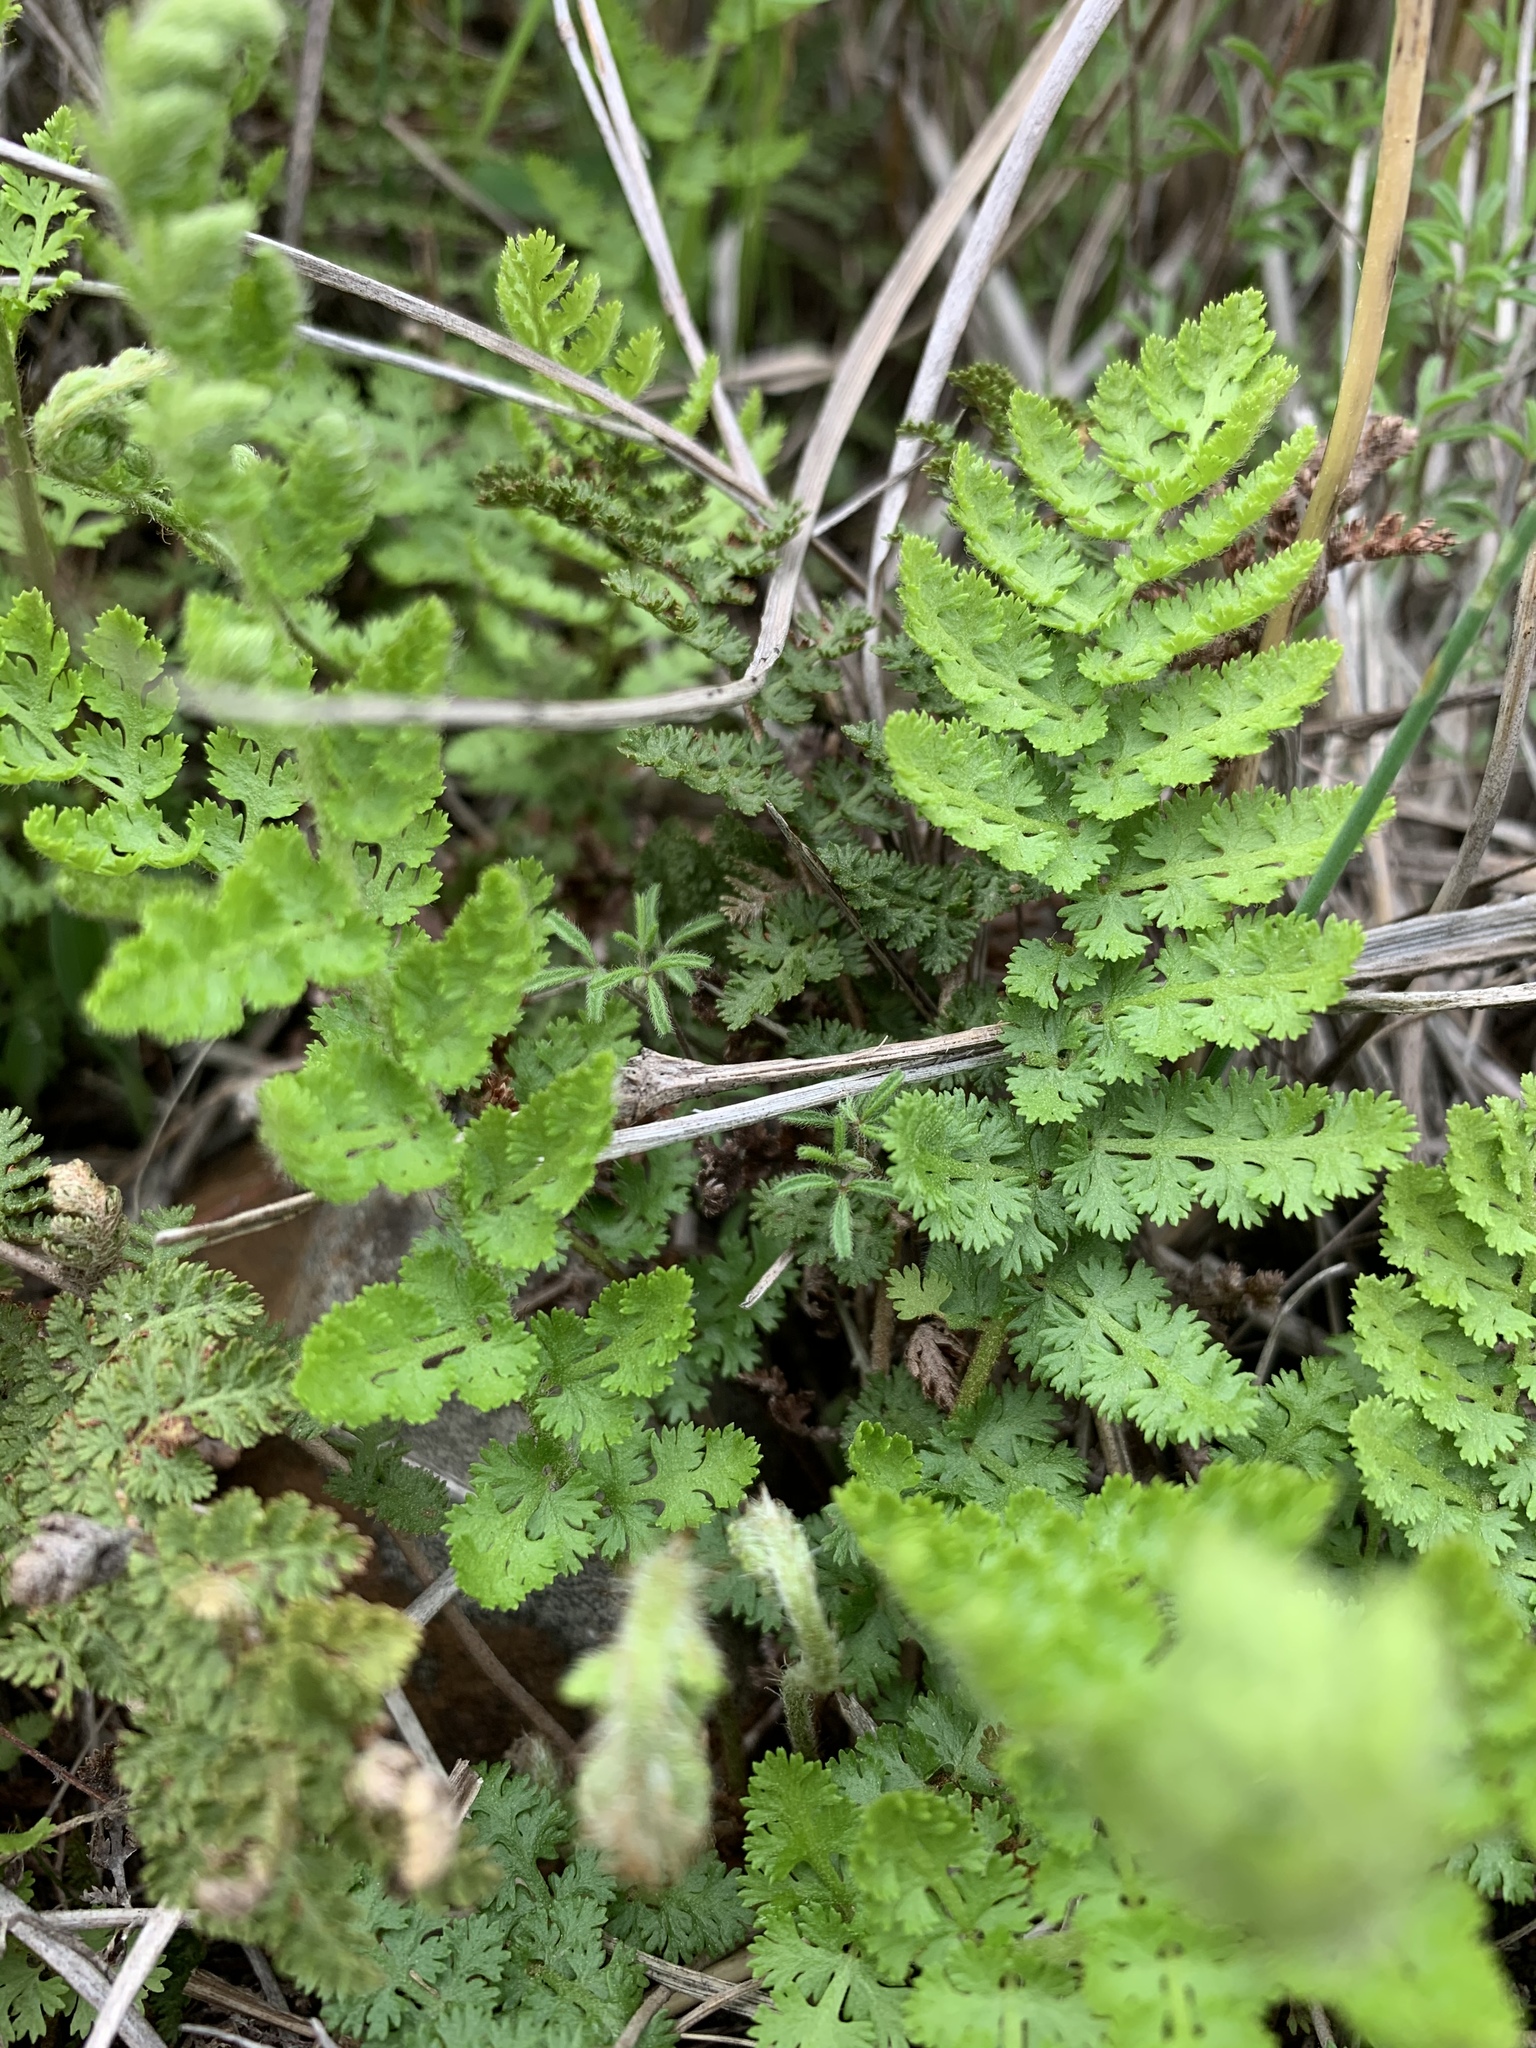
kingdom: Plantae
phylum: Tracheophyta
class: Polypodiopsida
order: Schizaeales
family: Anemiaceae
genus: Anemia
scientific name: Anemia caffrorum
